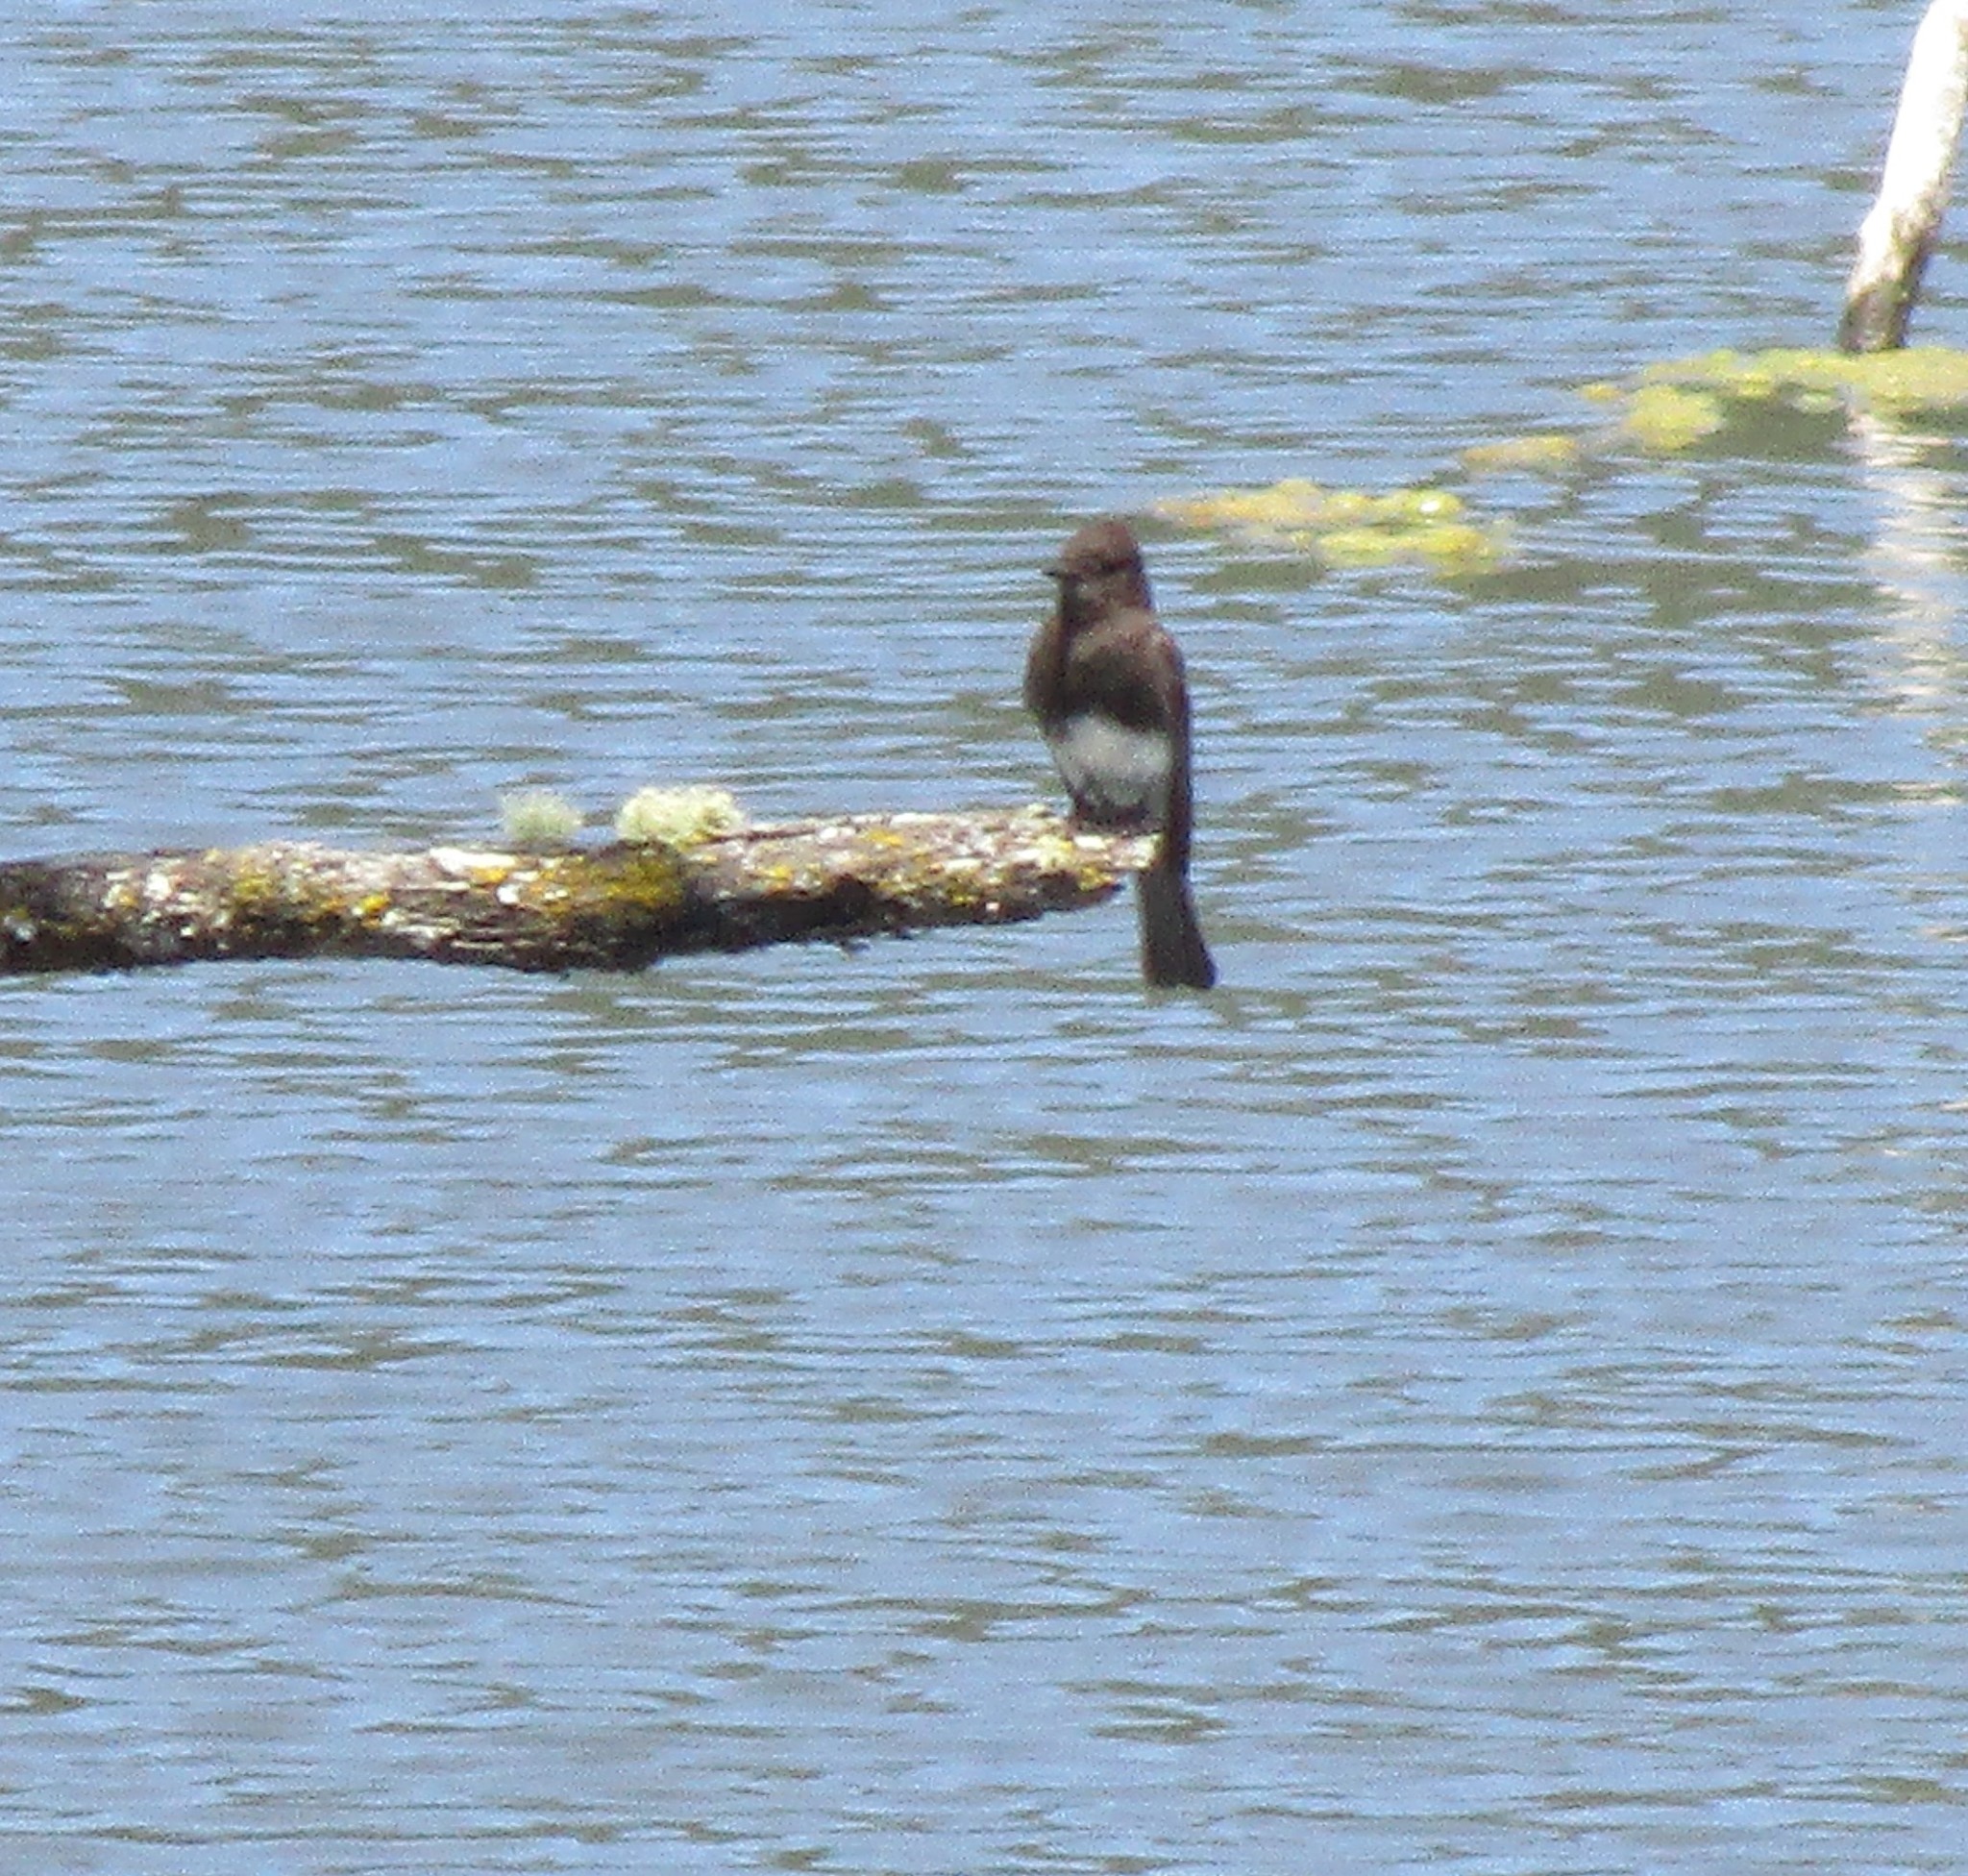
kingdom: Animalia
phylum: Chordata
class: Aves
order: Passeriformes
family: Tyrannidae
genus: Sayornis
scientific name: Sayornis nigricans
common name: Black phoebe
